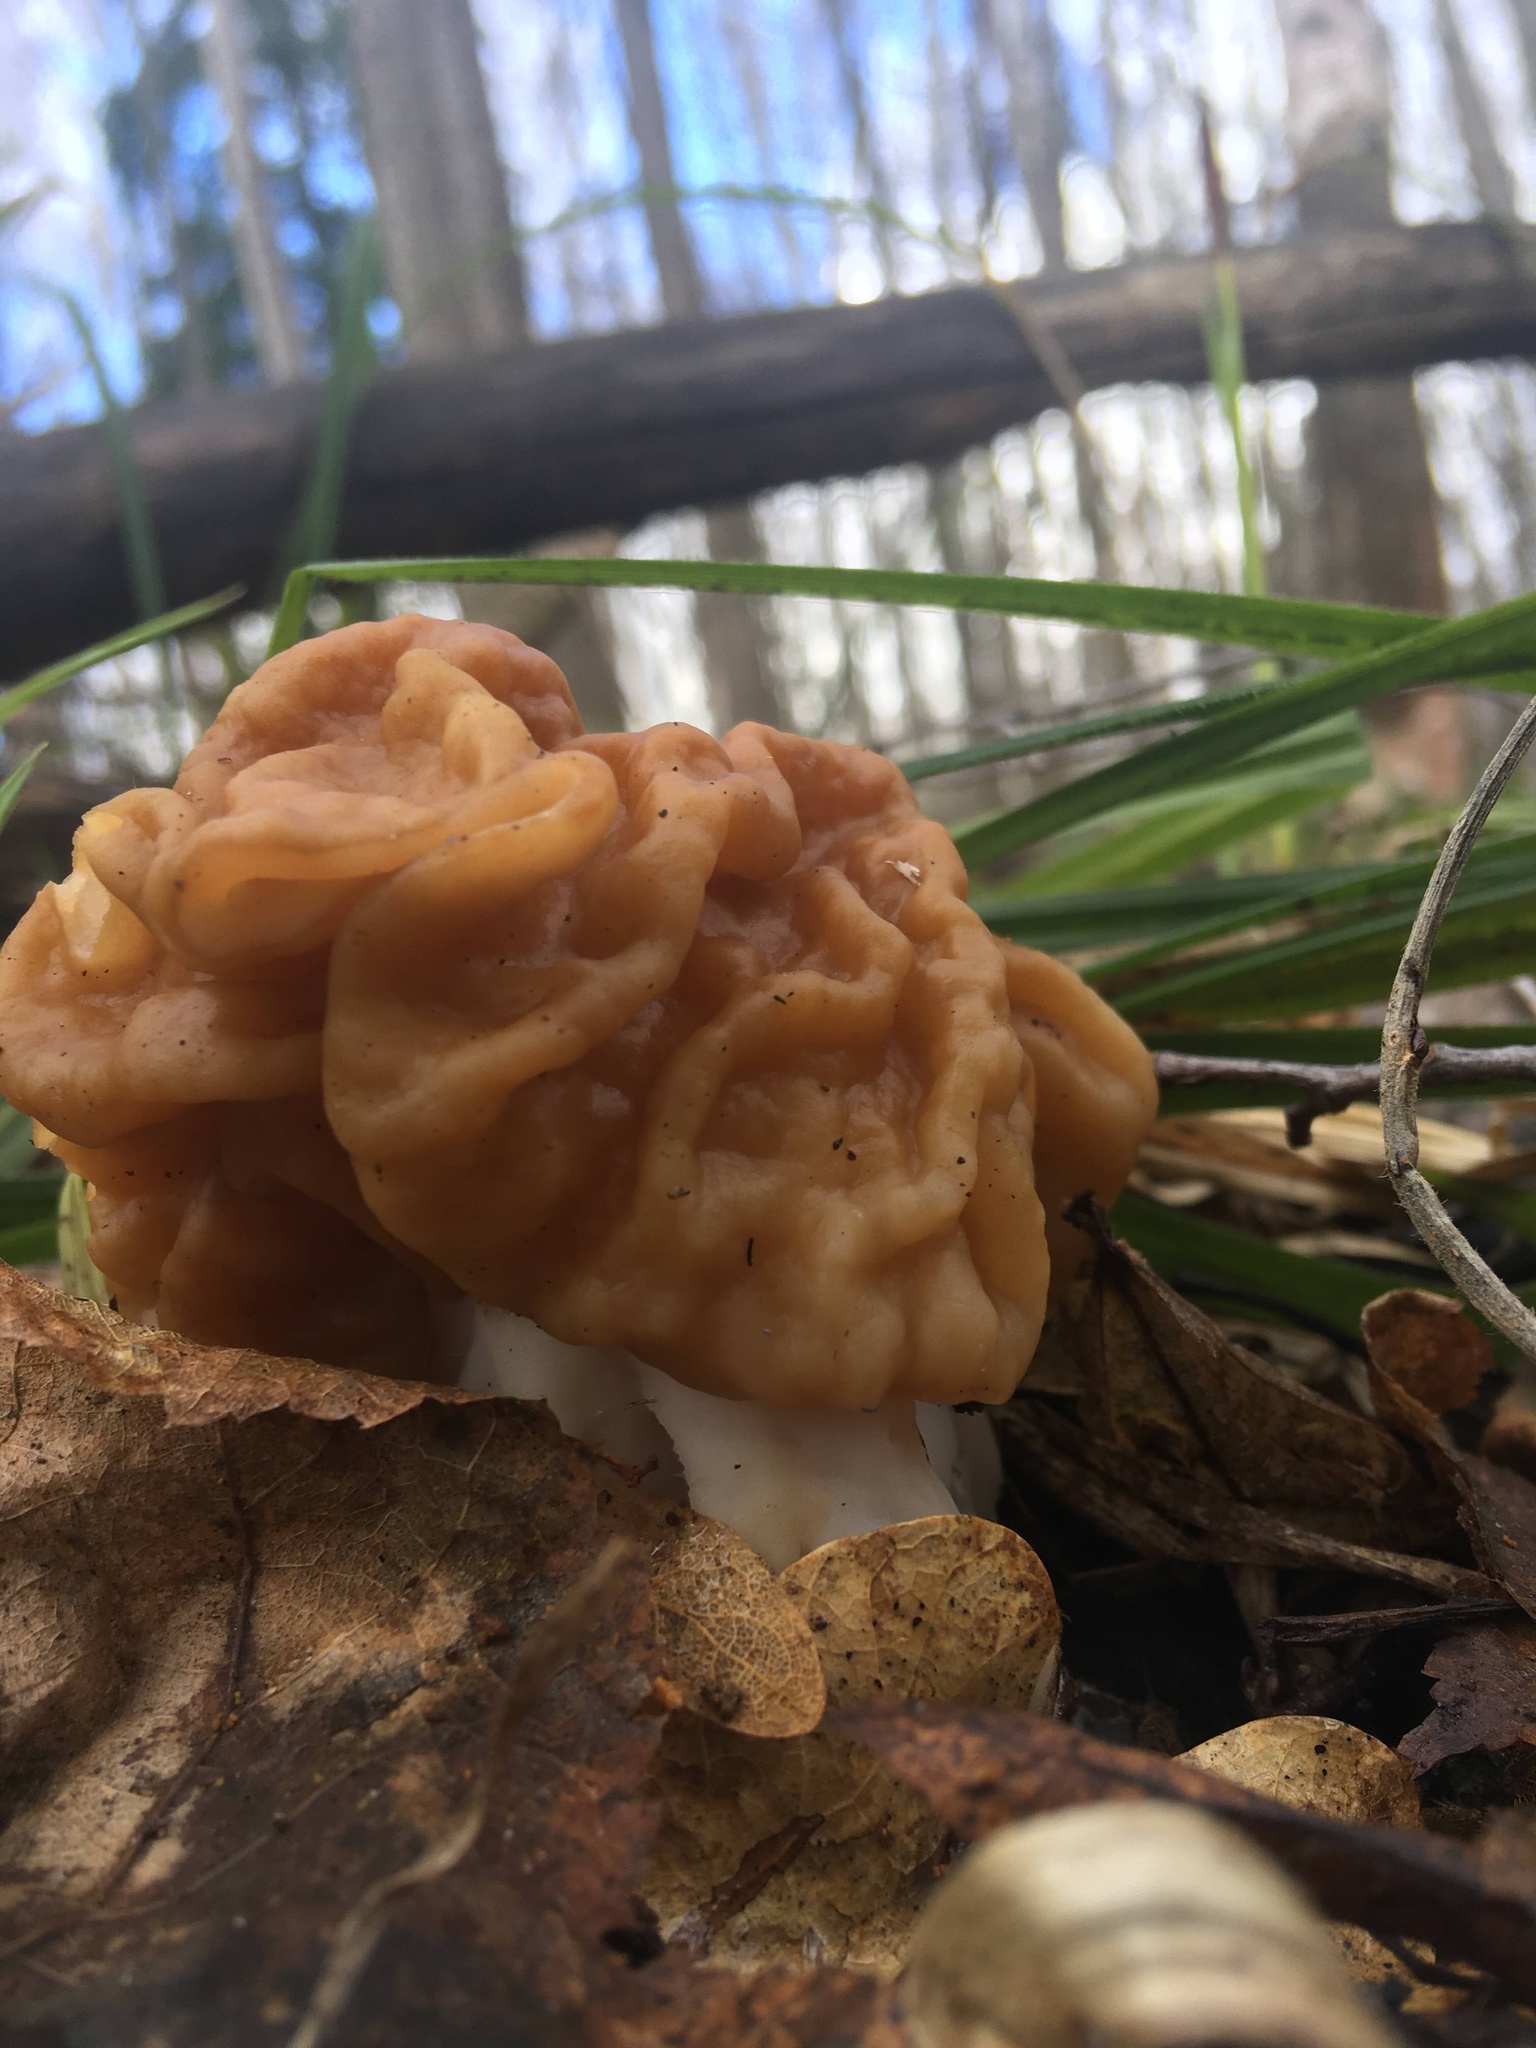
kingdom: Fungi
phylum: Ascomycota
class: Pezizomycetes
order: Pezizales
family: Discinaceae
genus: Gyromitra
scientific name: Gyromitra gigas
